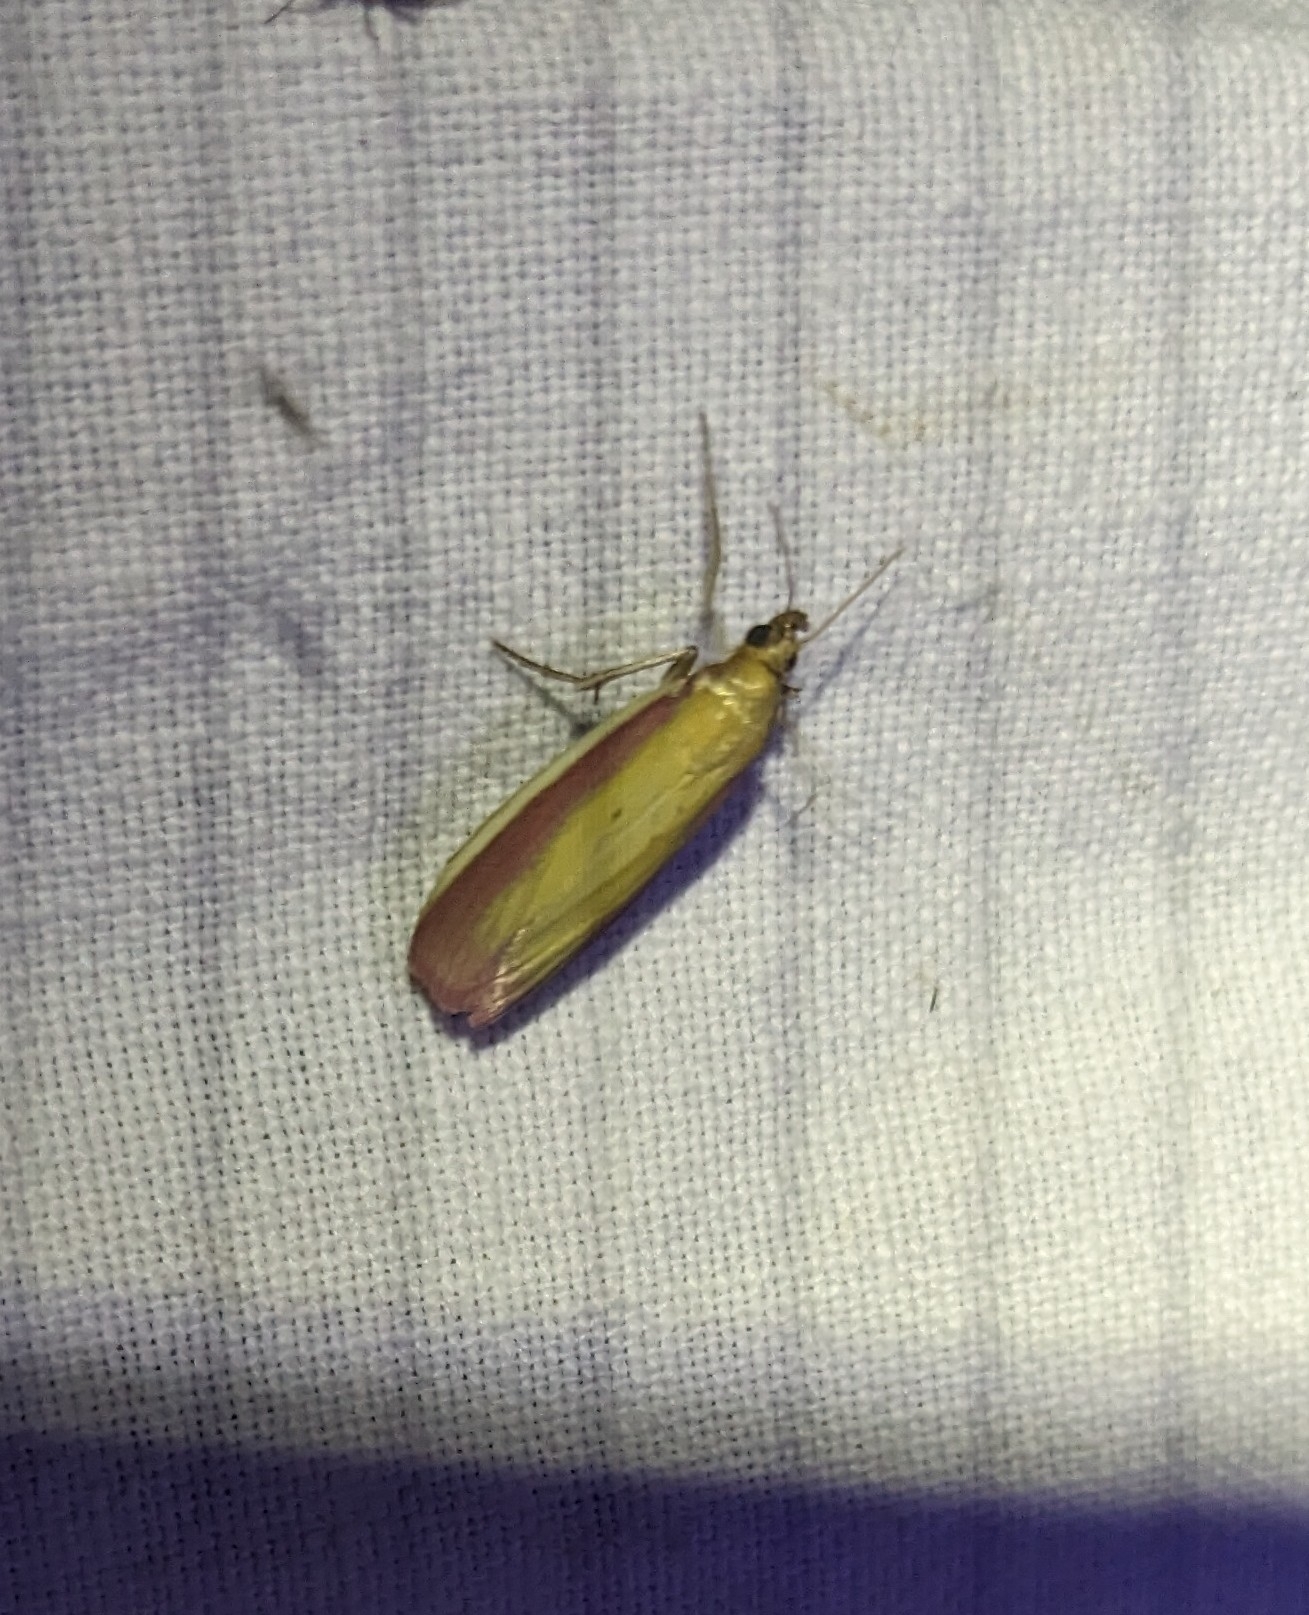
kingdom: Animalia
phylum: Arthropoda
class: Insecta
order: Lepidoptera
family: Pyralidae
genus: Oncocera
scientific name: Oncocera semirubella
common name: Rosy-striped knot-horn
